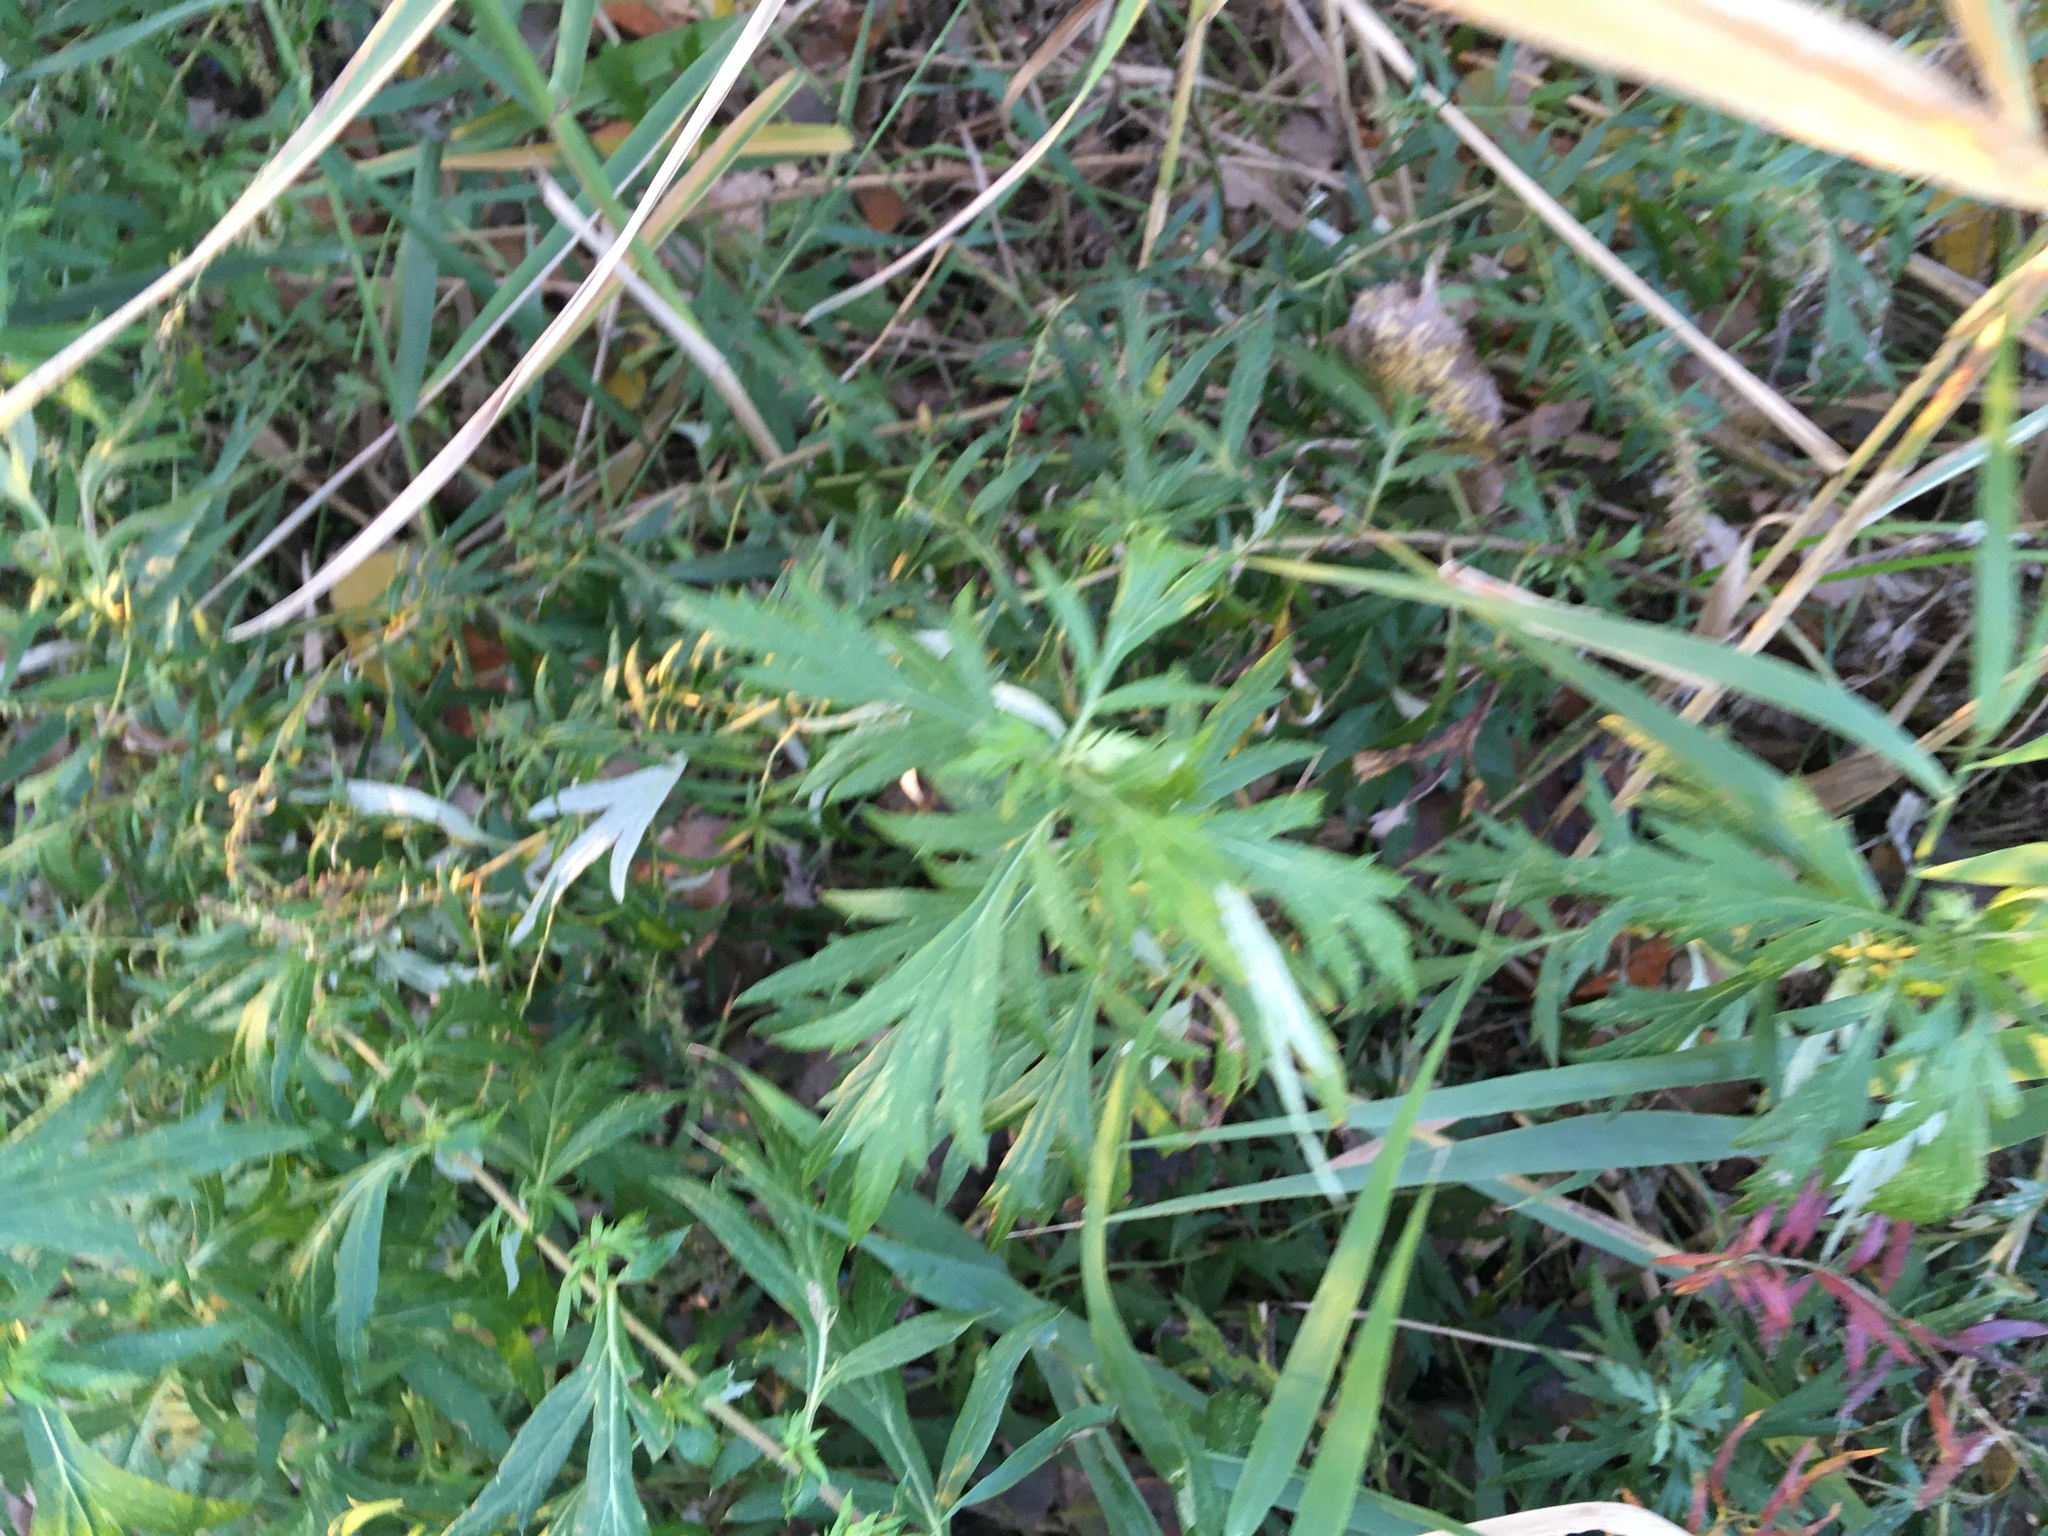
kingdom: Plantae
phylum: Tracheophyta
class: Magnoliopsida
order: Asterales
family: Asteraceae
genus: Artemisia
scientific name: Artemisia vulgaris
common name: Mugwort
